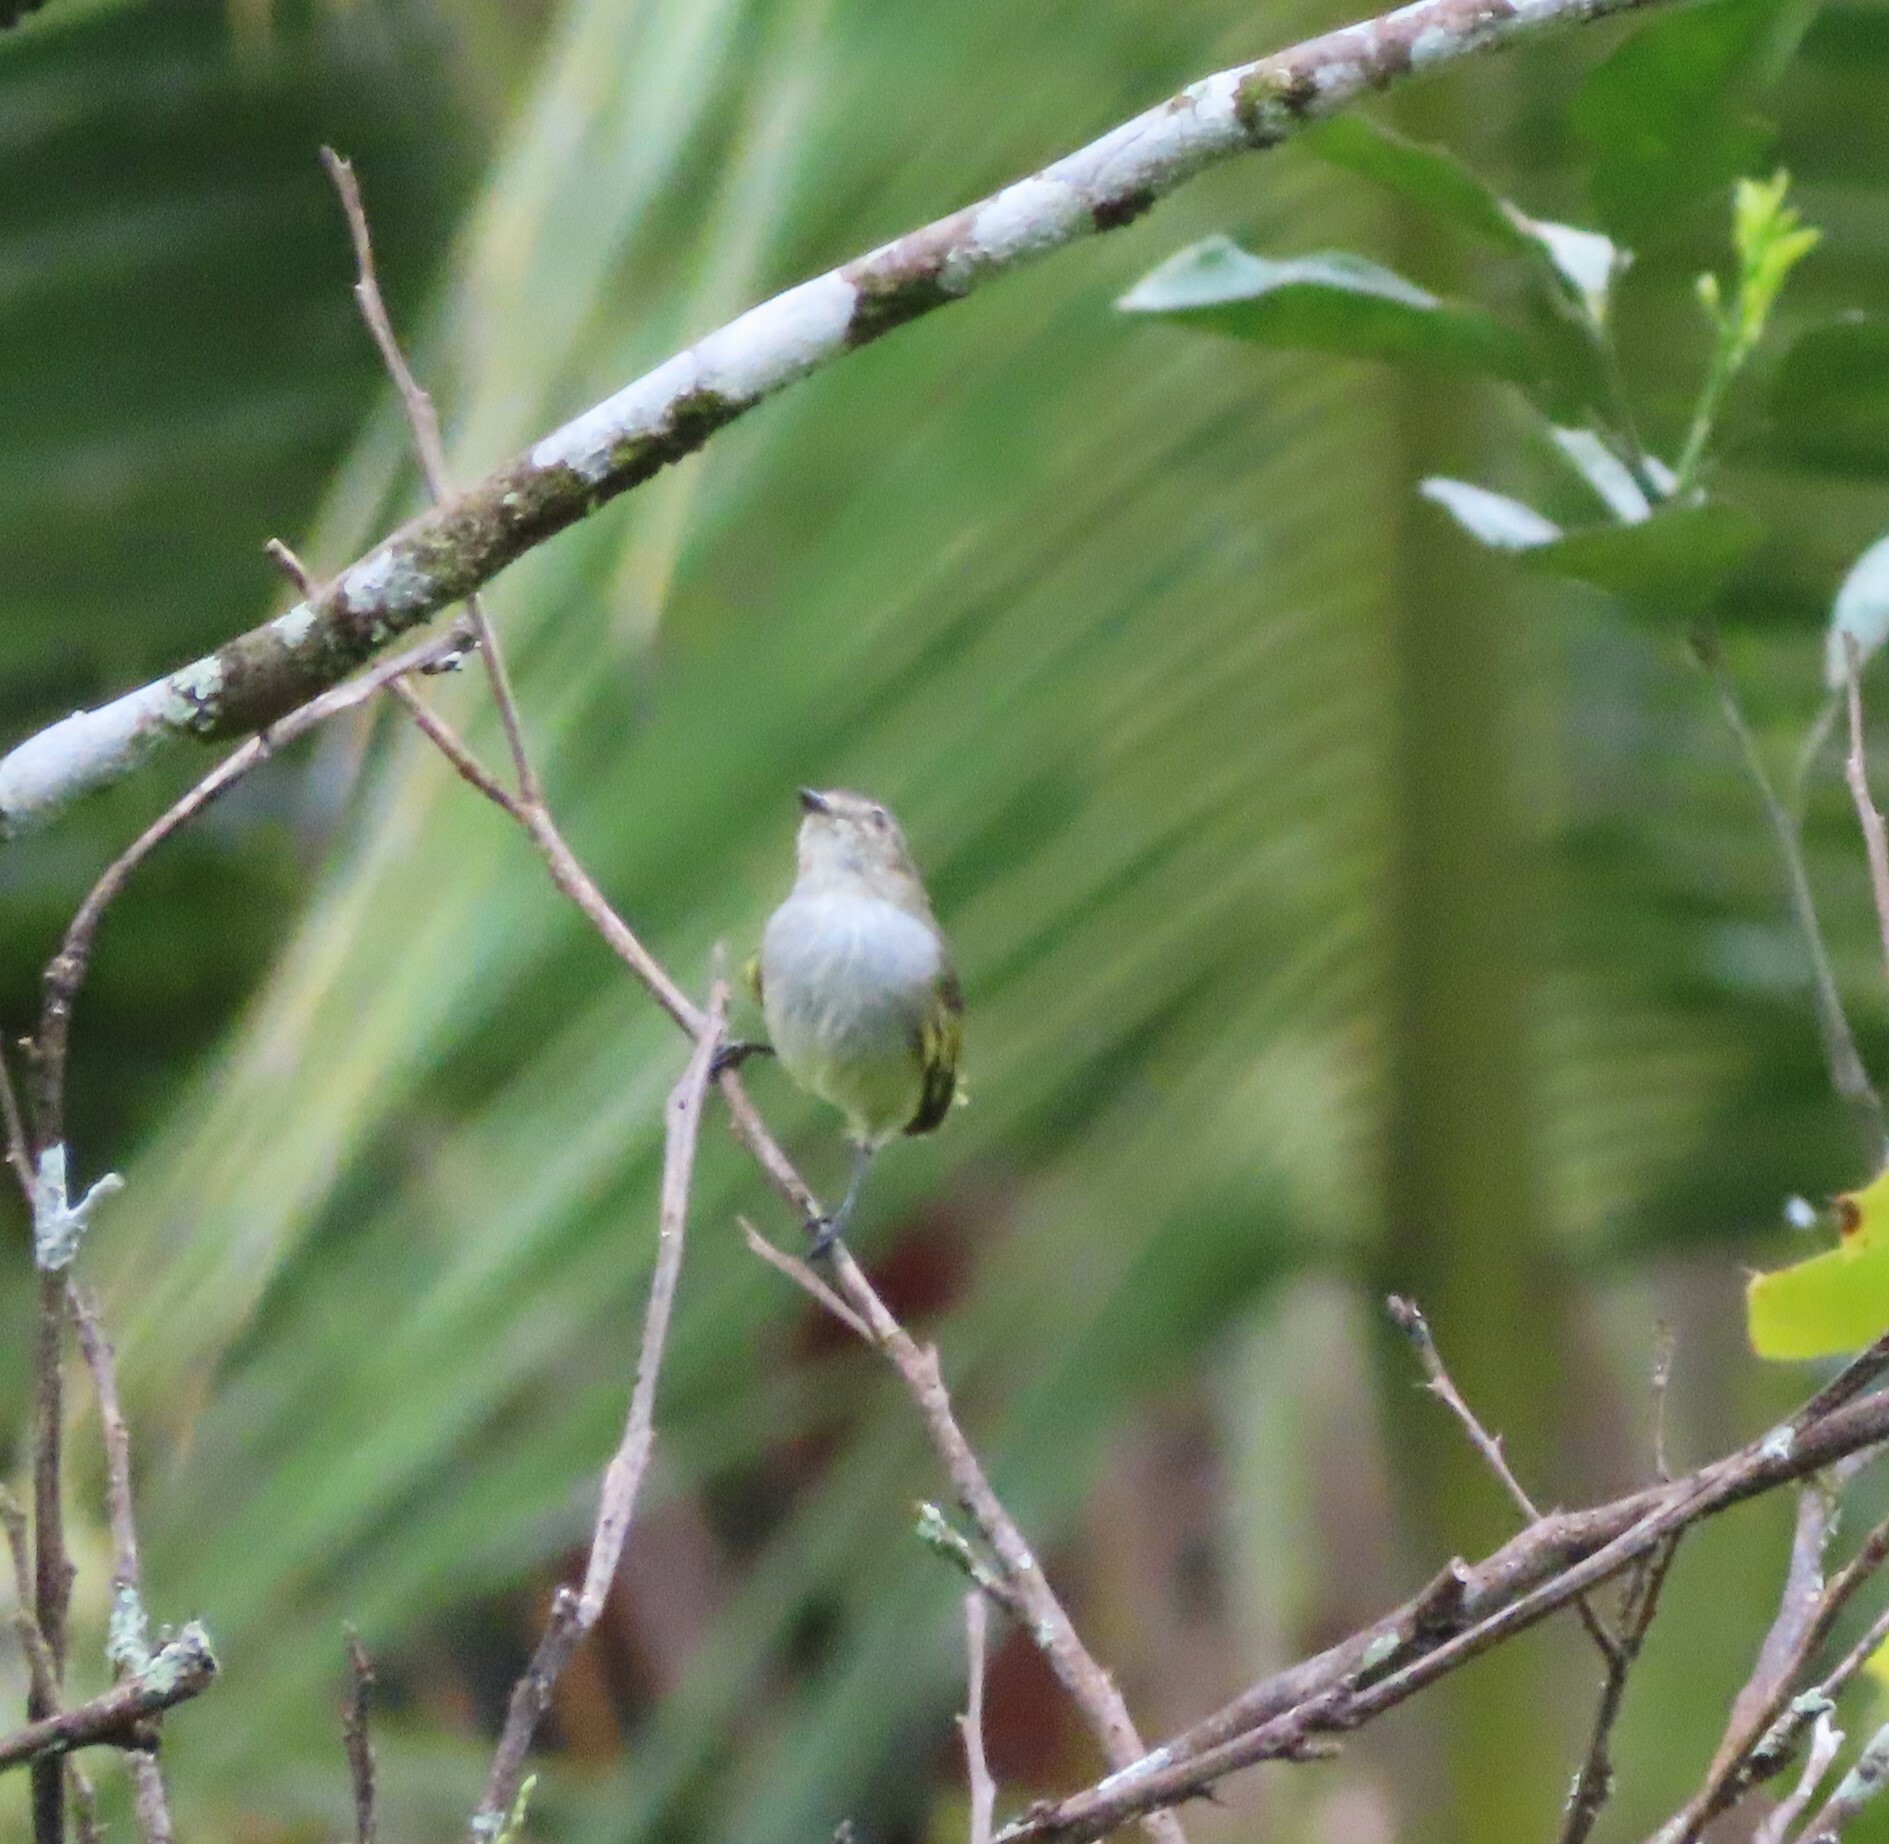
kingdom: Animalia
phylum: Chordata
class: Aves
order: Passeriformes
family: Tyrannidae
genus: Zimmerius
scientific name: Zimmerius vilissimus
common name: Paltry tyrannulet
